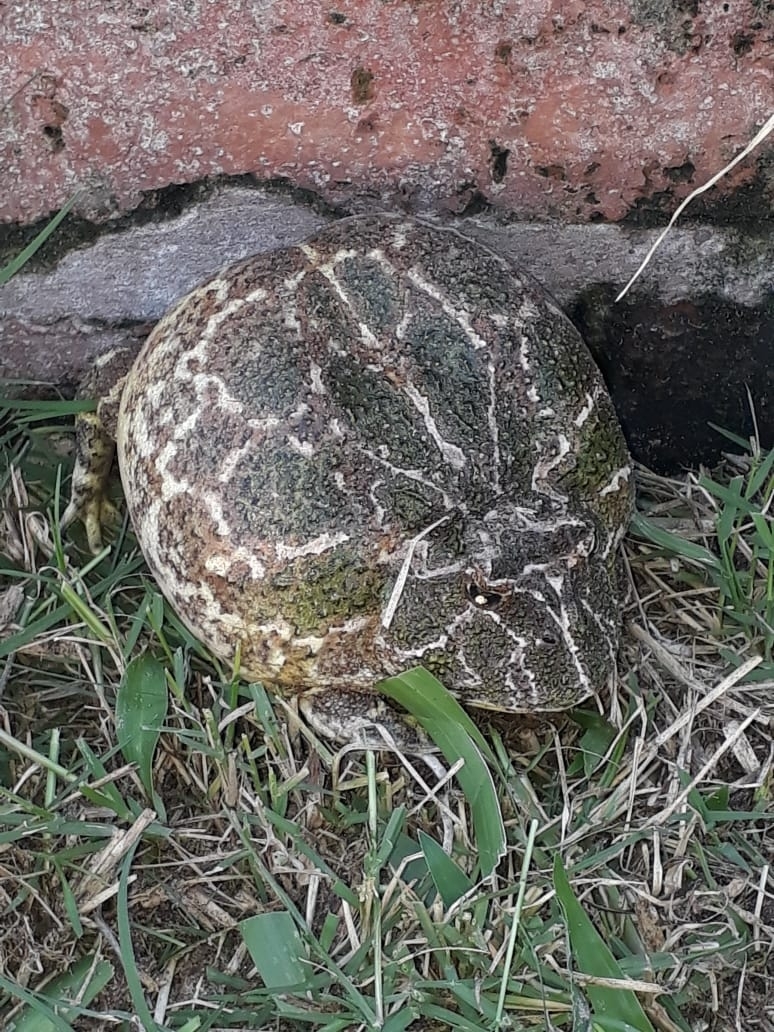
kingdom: Animalia
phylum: Chordata
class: Amphibia
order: Anura
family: Ceratophryidae
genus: Ceratophrys
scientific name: Ceratophrys cranwelli
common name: Chacoan horned frog
